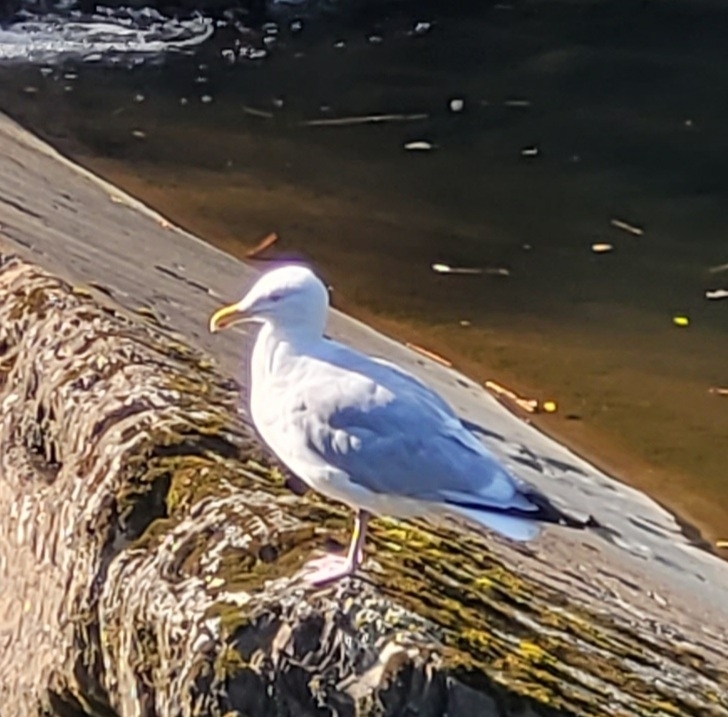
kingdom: Animalia
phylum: Chordata
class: Aves
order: Charadriiformes
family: Laridae
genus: Larus
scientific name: Larus argentatus
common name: Herring gull
